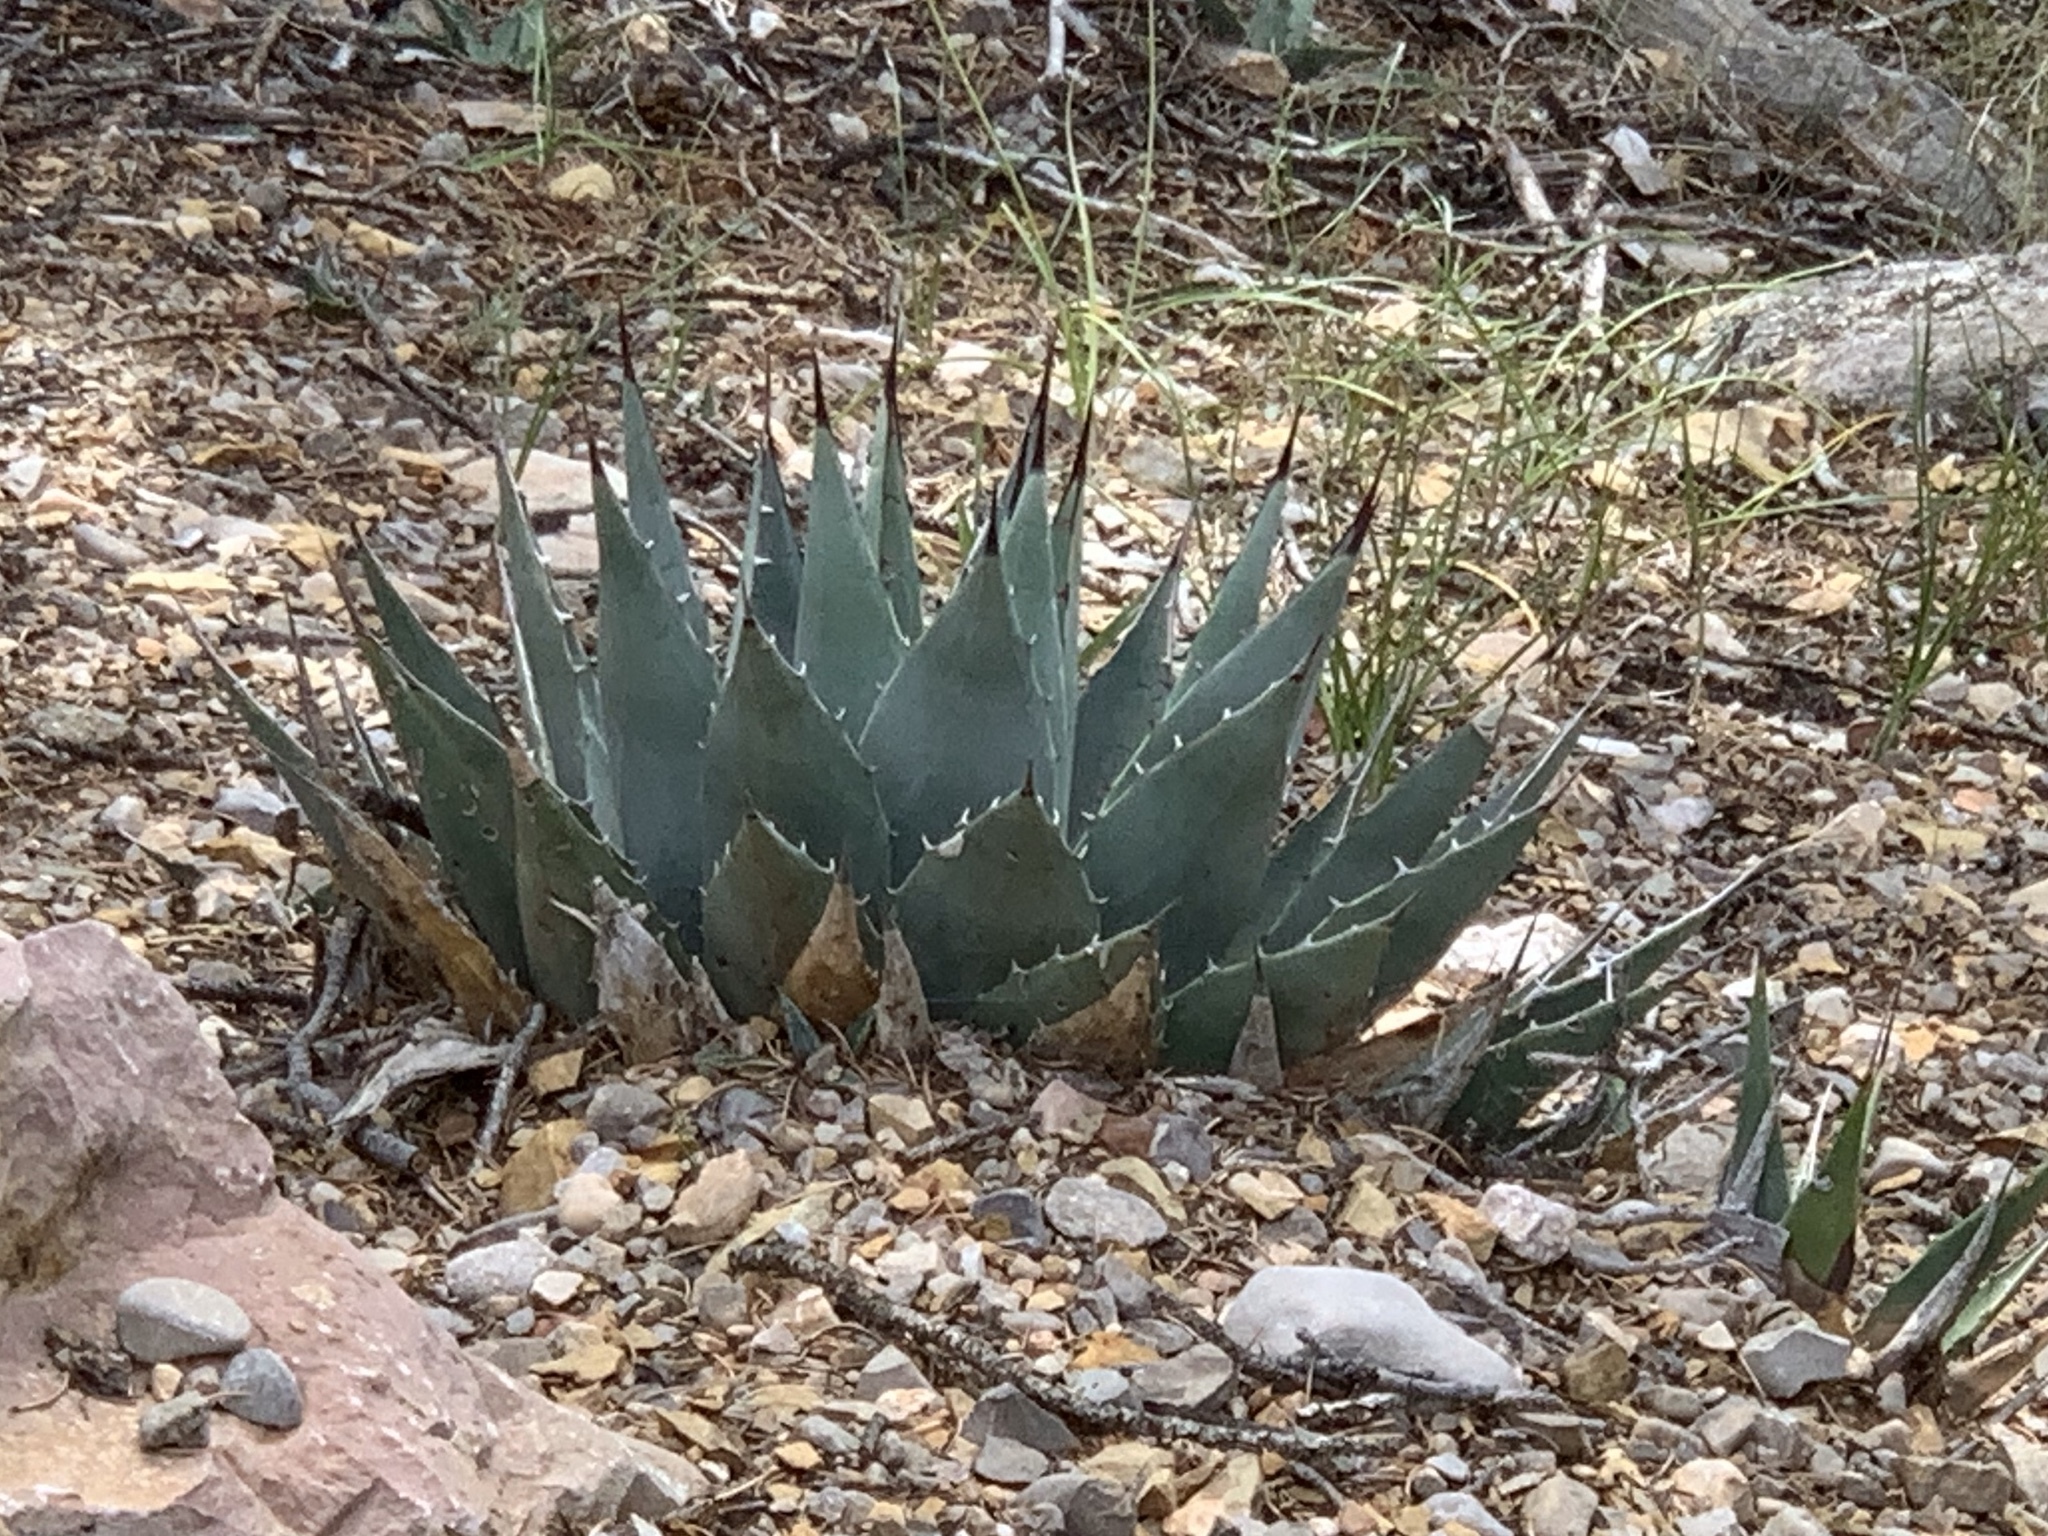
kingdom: Plantae
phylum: Tracheophyta
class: Liliopsida
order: Asparagales
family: Asparagaceae
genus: Agave
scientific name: Agave parryi
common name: Parry's agave
